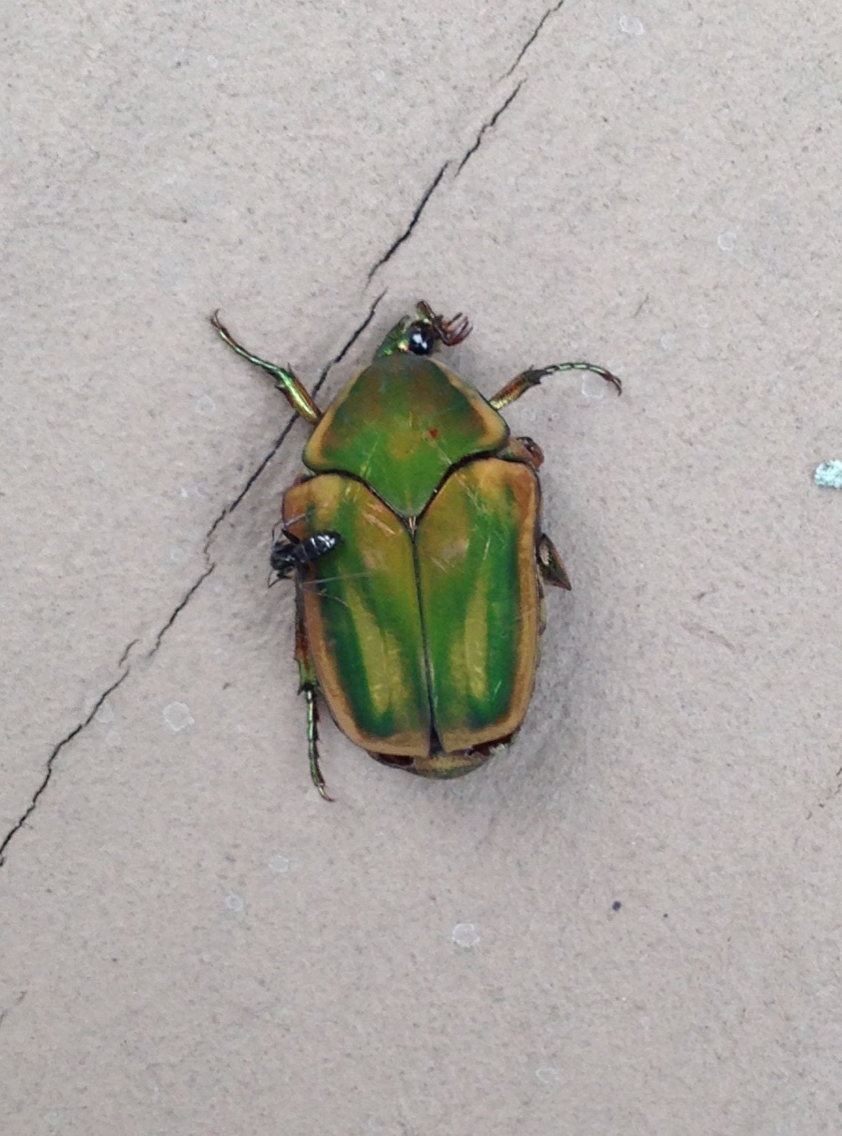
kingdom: Animalia
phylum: Arthropoda
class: Insecta
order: Coleoptera
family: Scarabaeidae
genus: Cotinis
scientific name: Cotinis nitida
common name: Common green june beetle
